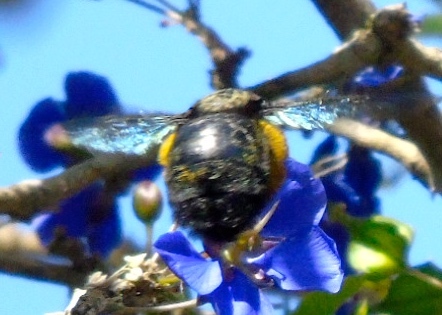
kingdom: Animalia
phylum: Arthropoda
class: Insecta
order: Hymenoptera
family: Apidae
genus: Xylocopa
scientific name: Xylocopa
